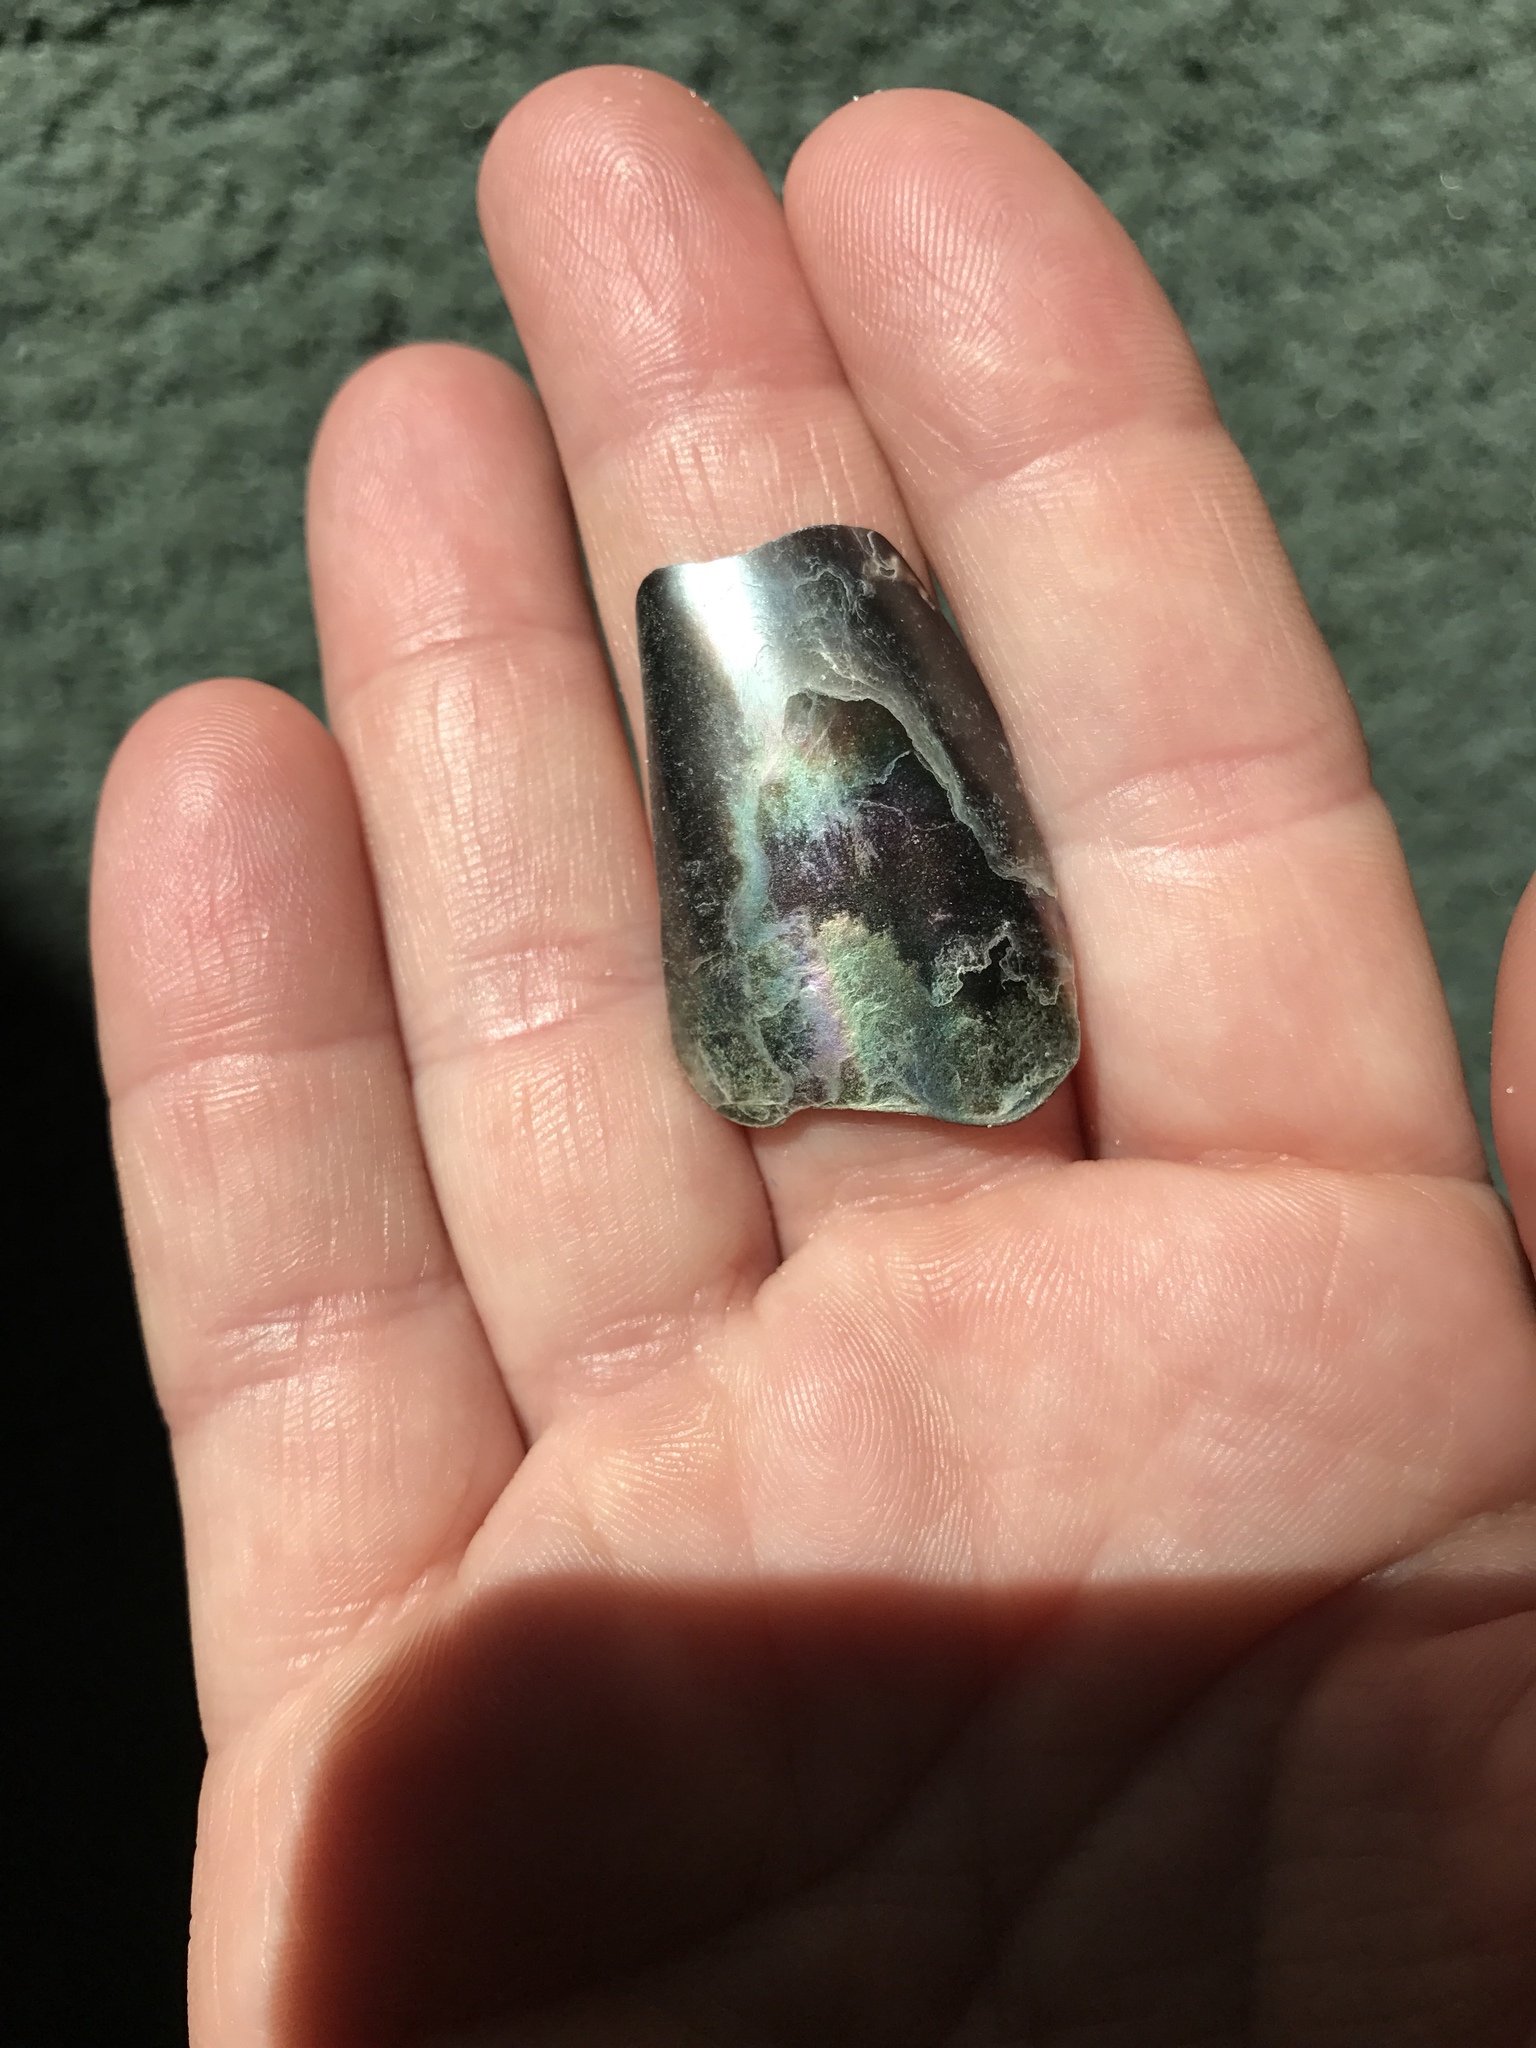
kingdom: Animalia
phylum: Mollusca
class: Bivalvia
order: Ostreida
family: Pinnidae
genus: Atrina
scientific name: Atrina rigida
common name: Stiff penshell
